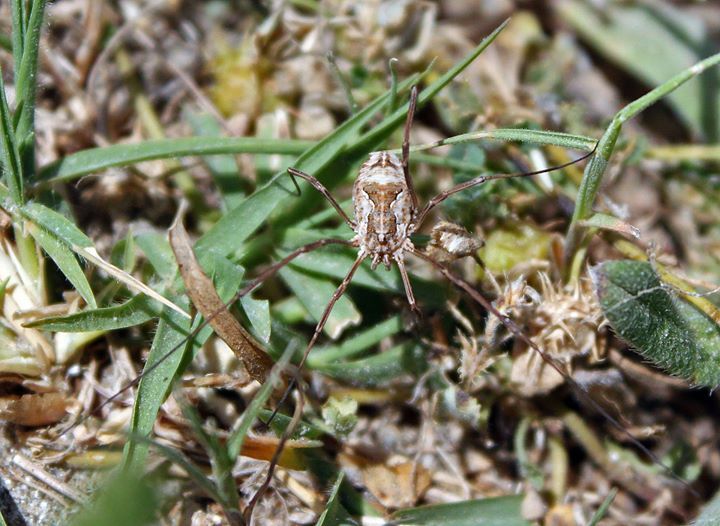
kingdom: Animalia
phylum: Arthropoda
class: Arachnida
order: Opiliones
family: Phalangiidae
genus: Metaphalangium
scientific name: Metaphalangium cirtanum
